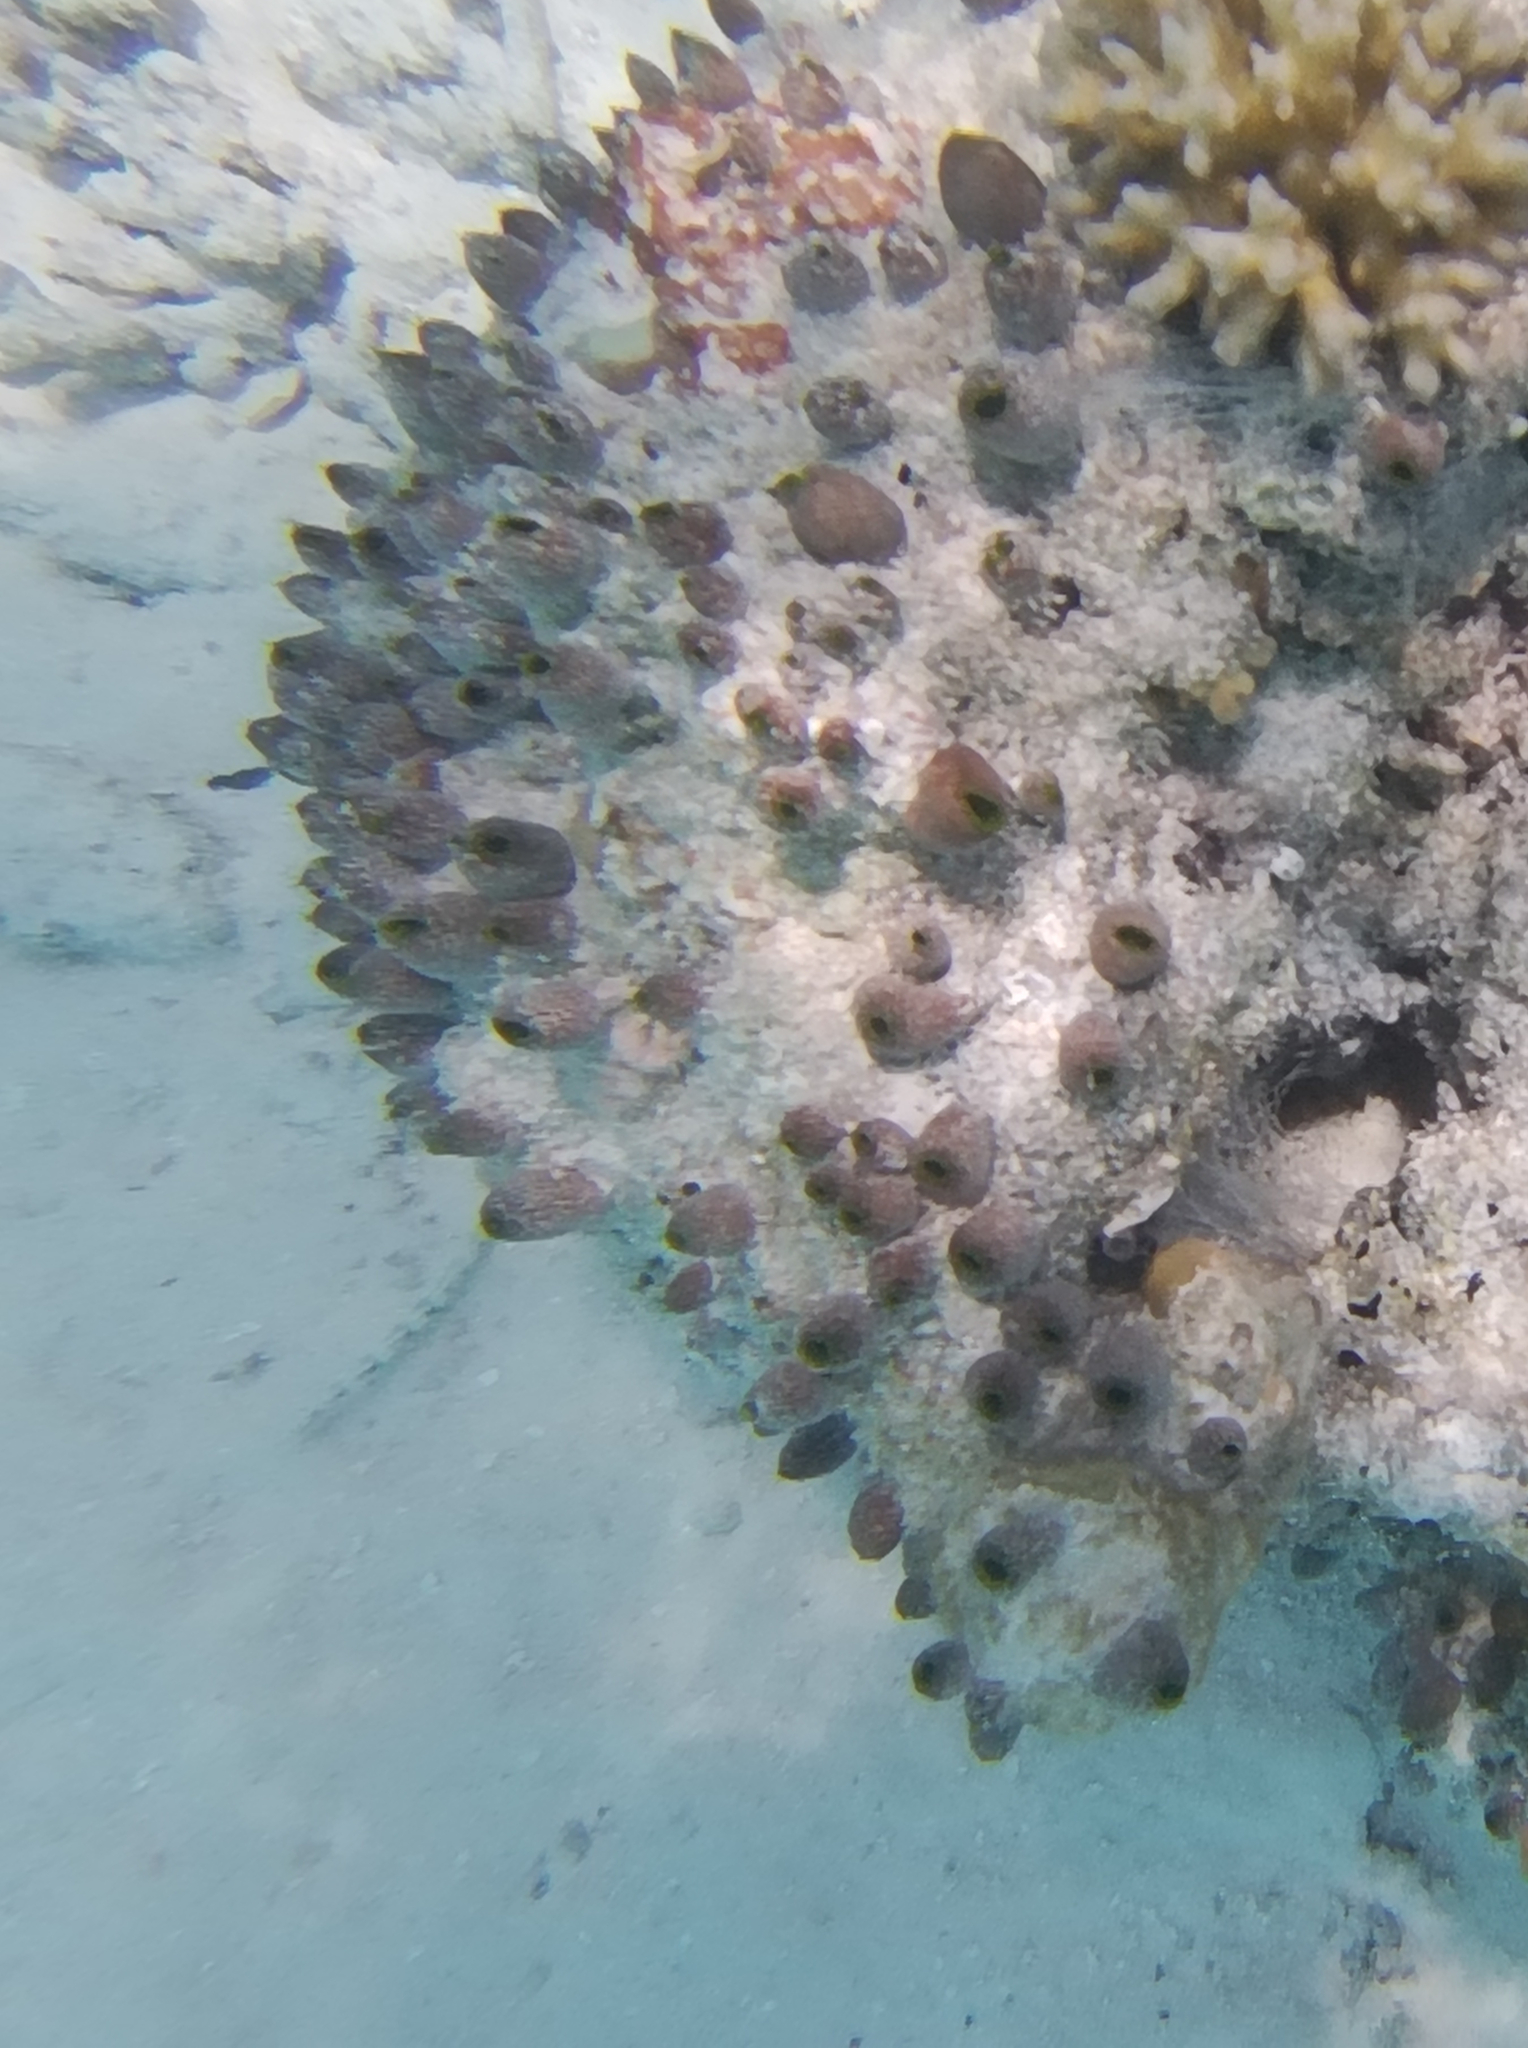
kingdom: Animalia
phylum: Chordata
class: Ascidiacea
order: Aplousobranchia
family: Didemnidae
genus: Didemnum
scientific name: Didemnum molle
